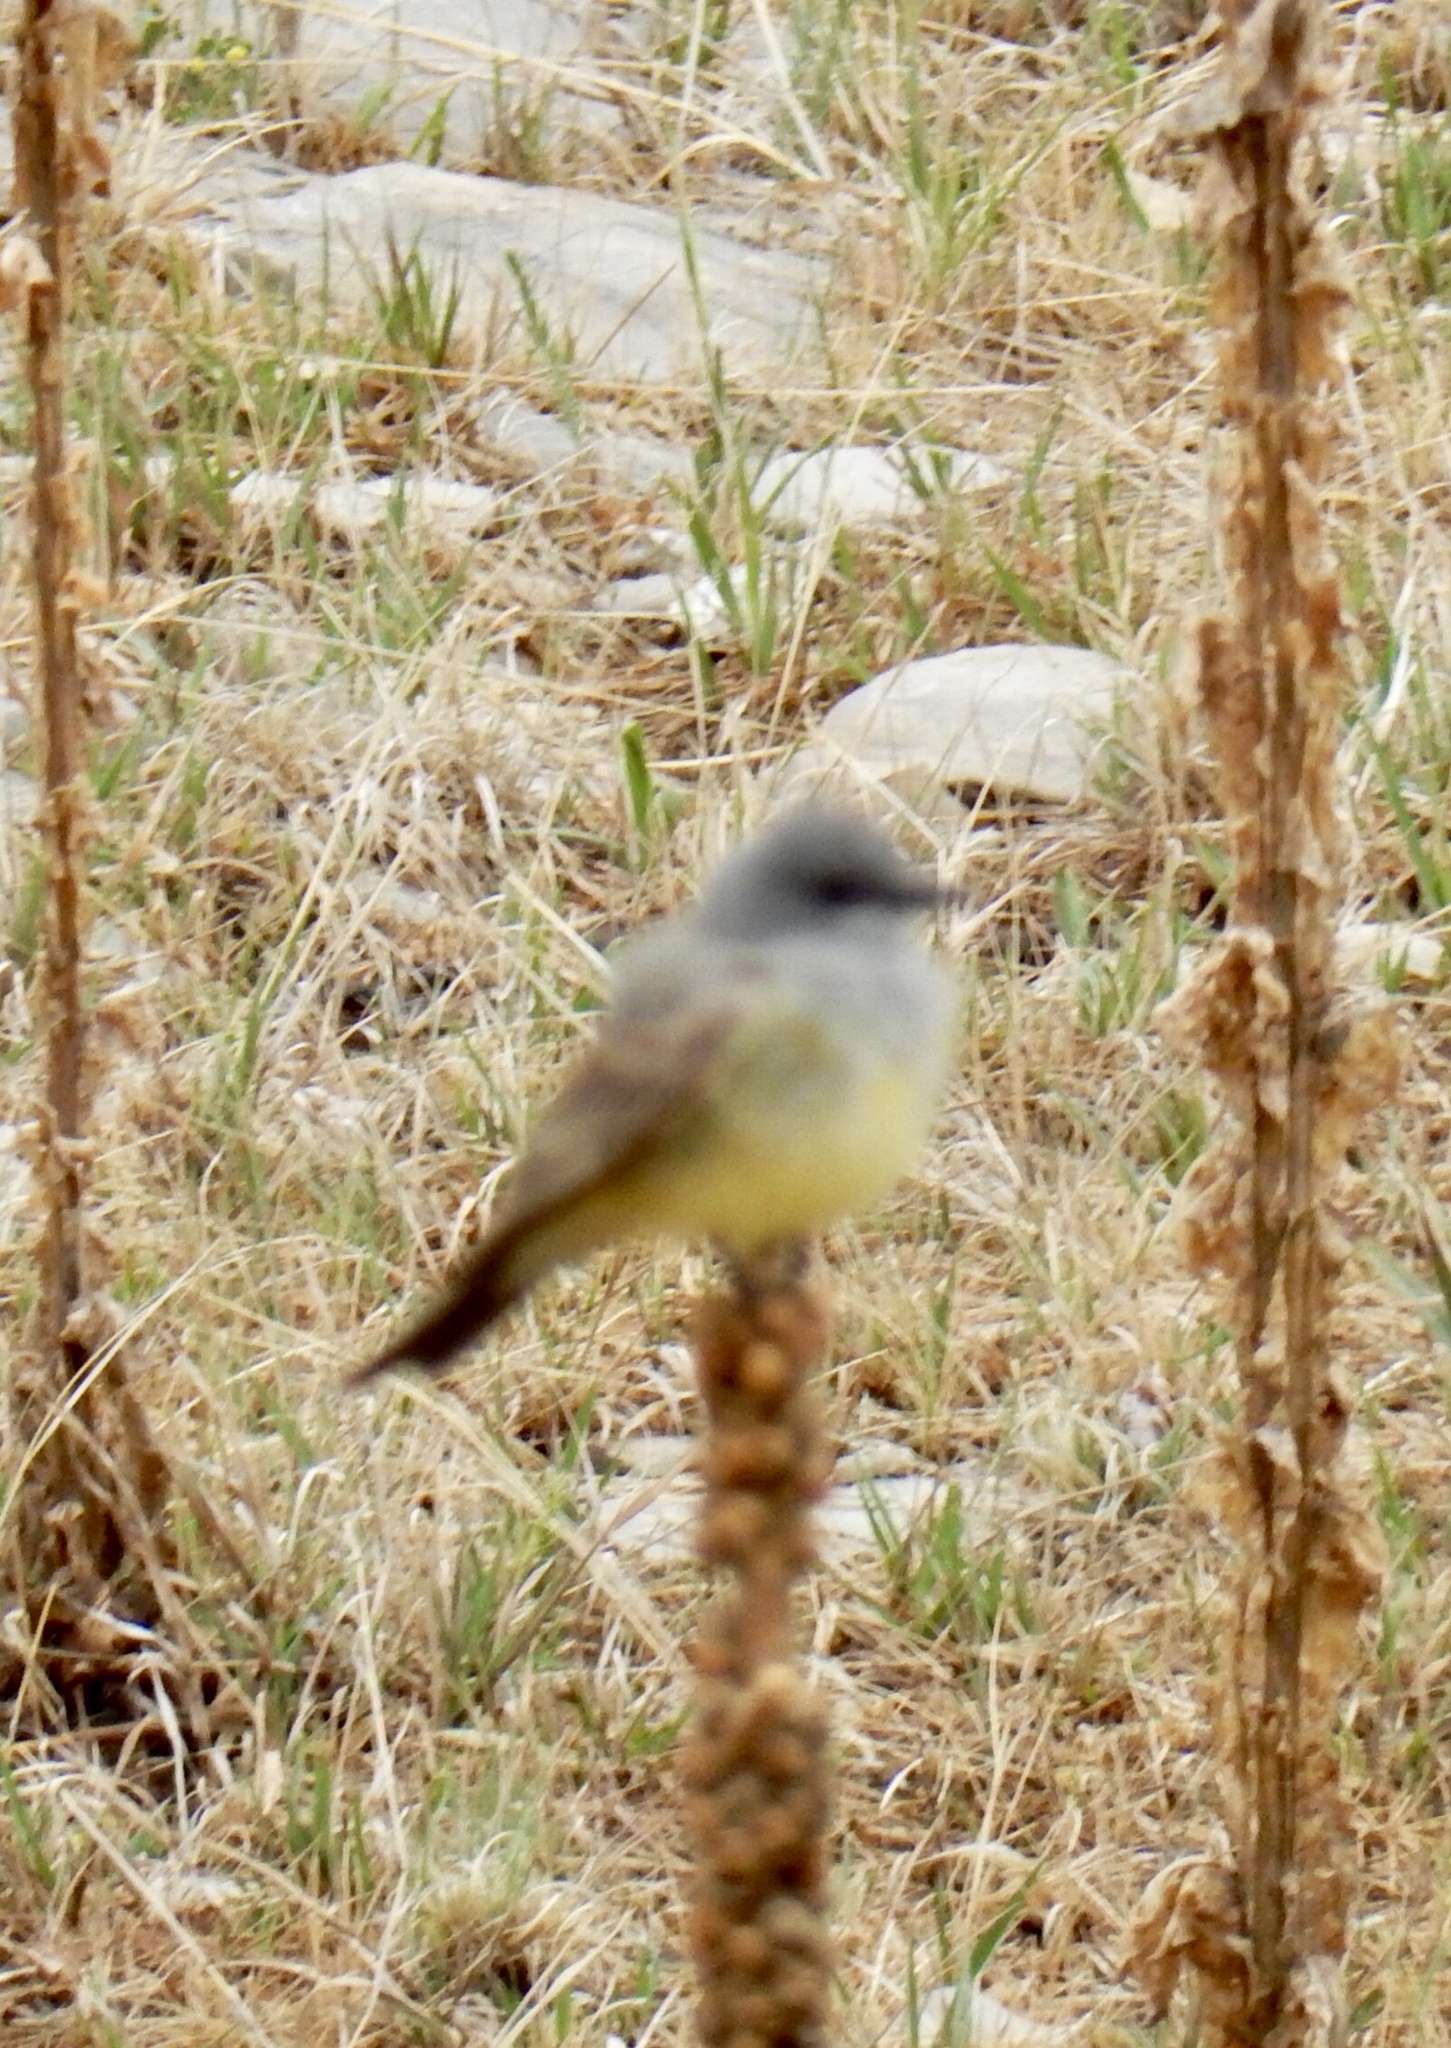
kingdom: Animalia
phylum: Chordata
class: Aves
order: Passeriformes
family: Tyrannidae
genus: Tyrannus
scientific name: Tyrannus vociferans
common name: Cassin's kingbird
